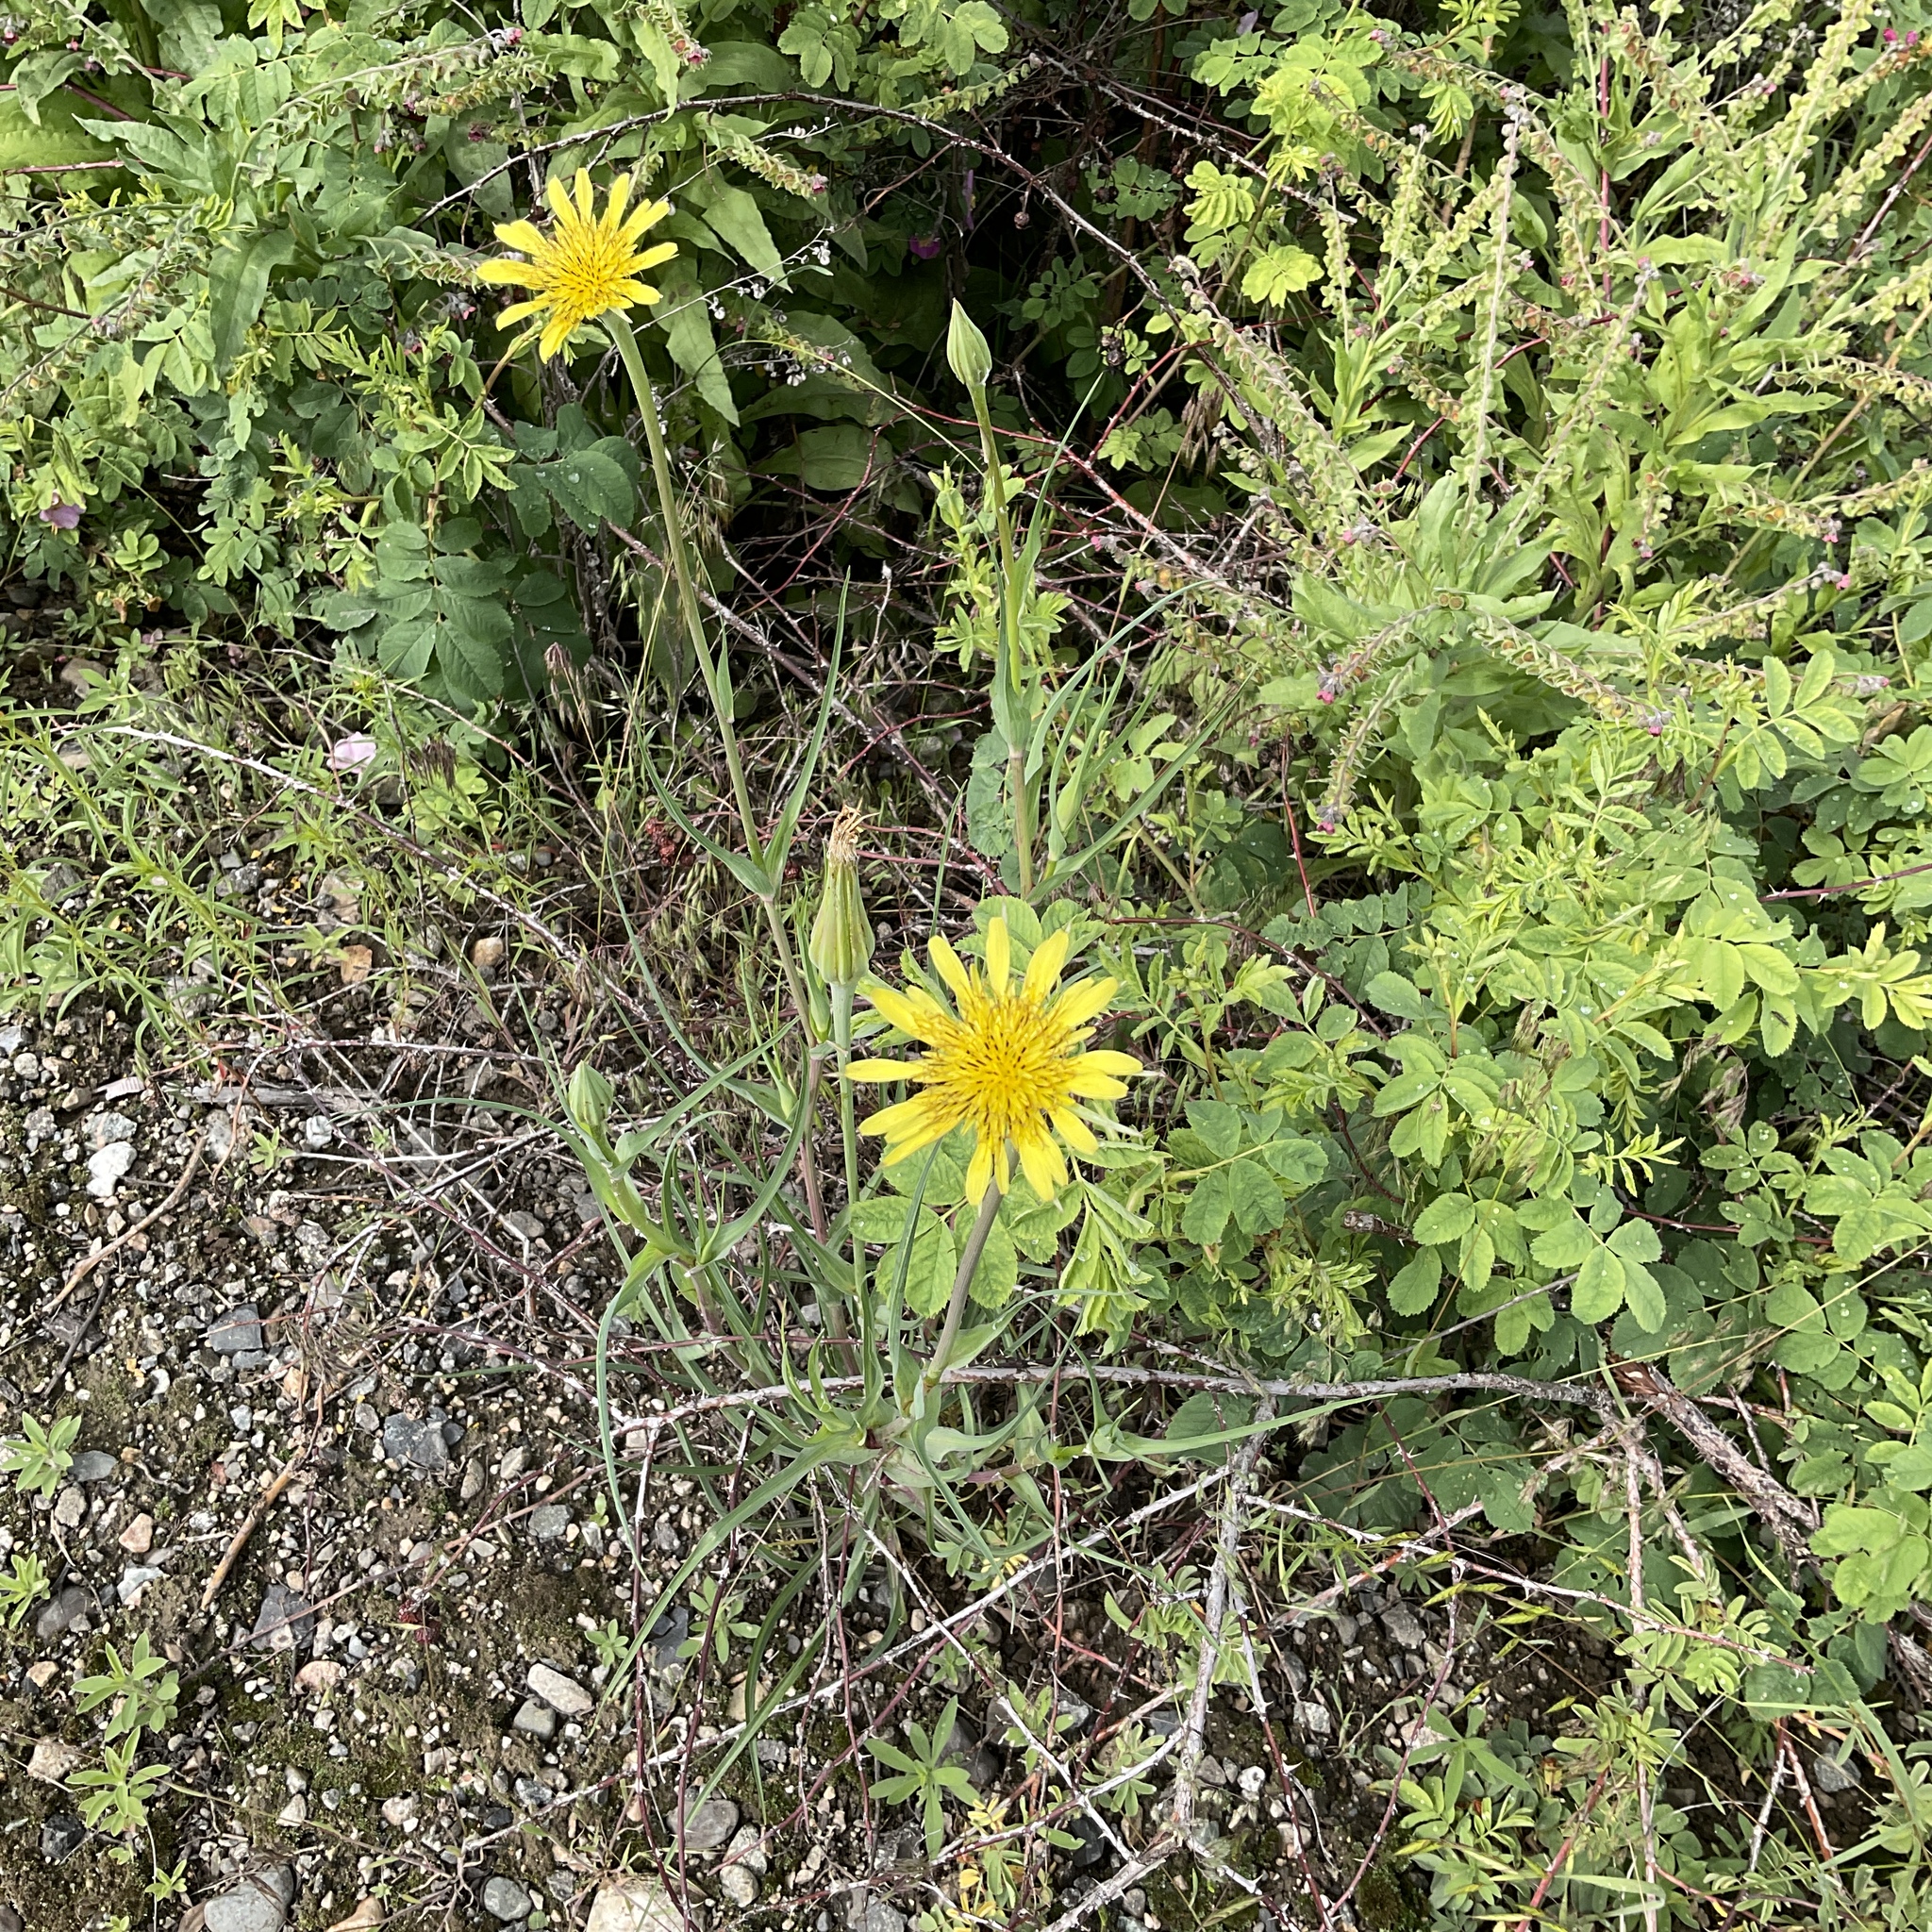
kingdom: Plantae
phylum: Tracheophyta
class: Magnoliopsida
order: Asterales
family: Asteraceae
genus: Tragopogon
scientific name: Tragopogon dubius
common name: Yellow salsify
